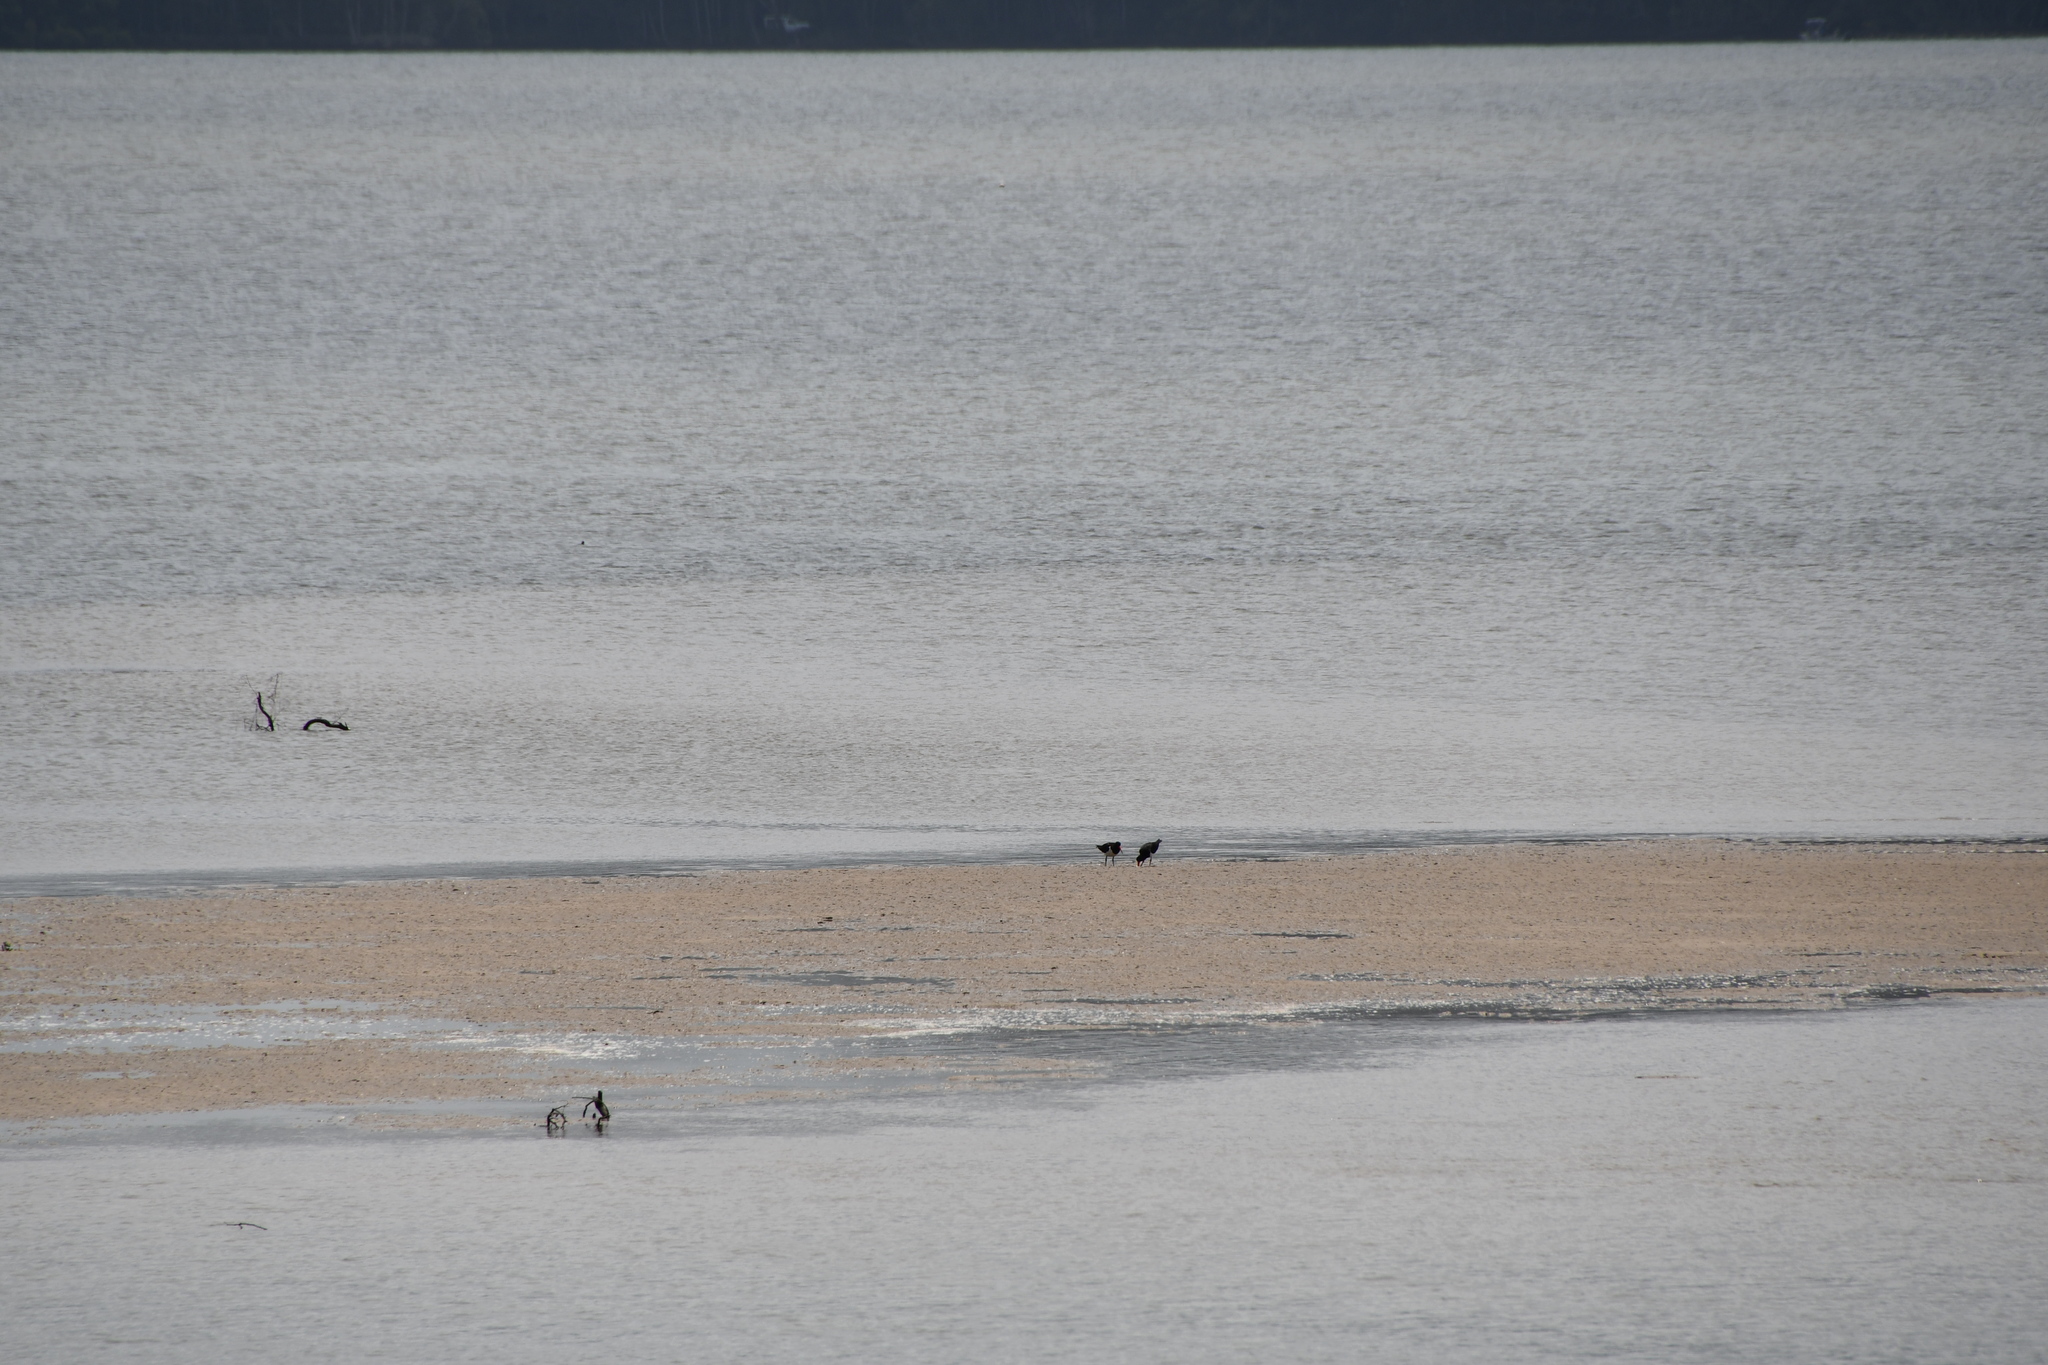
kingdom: Animalia
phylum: Chordata
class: Aves
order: Charadriiformes
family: Haematopodidae
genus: Haematopus
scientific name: Haematopus longirostris
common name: Pied oystercatcher
